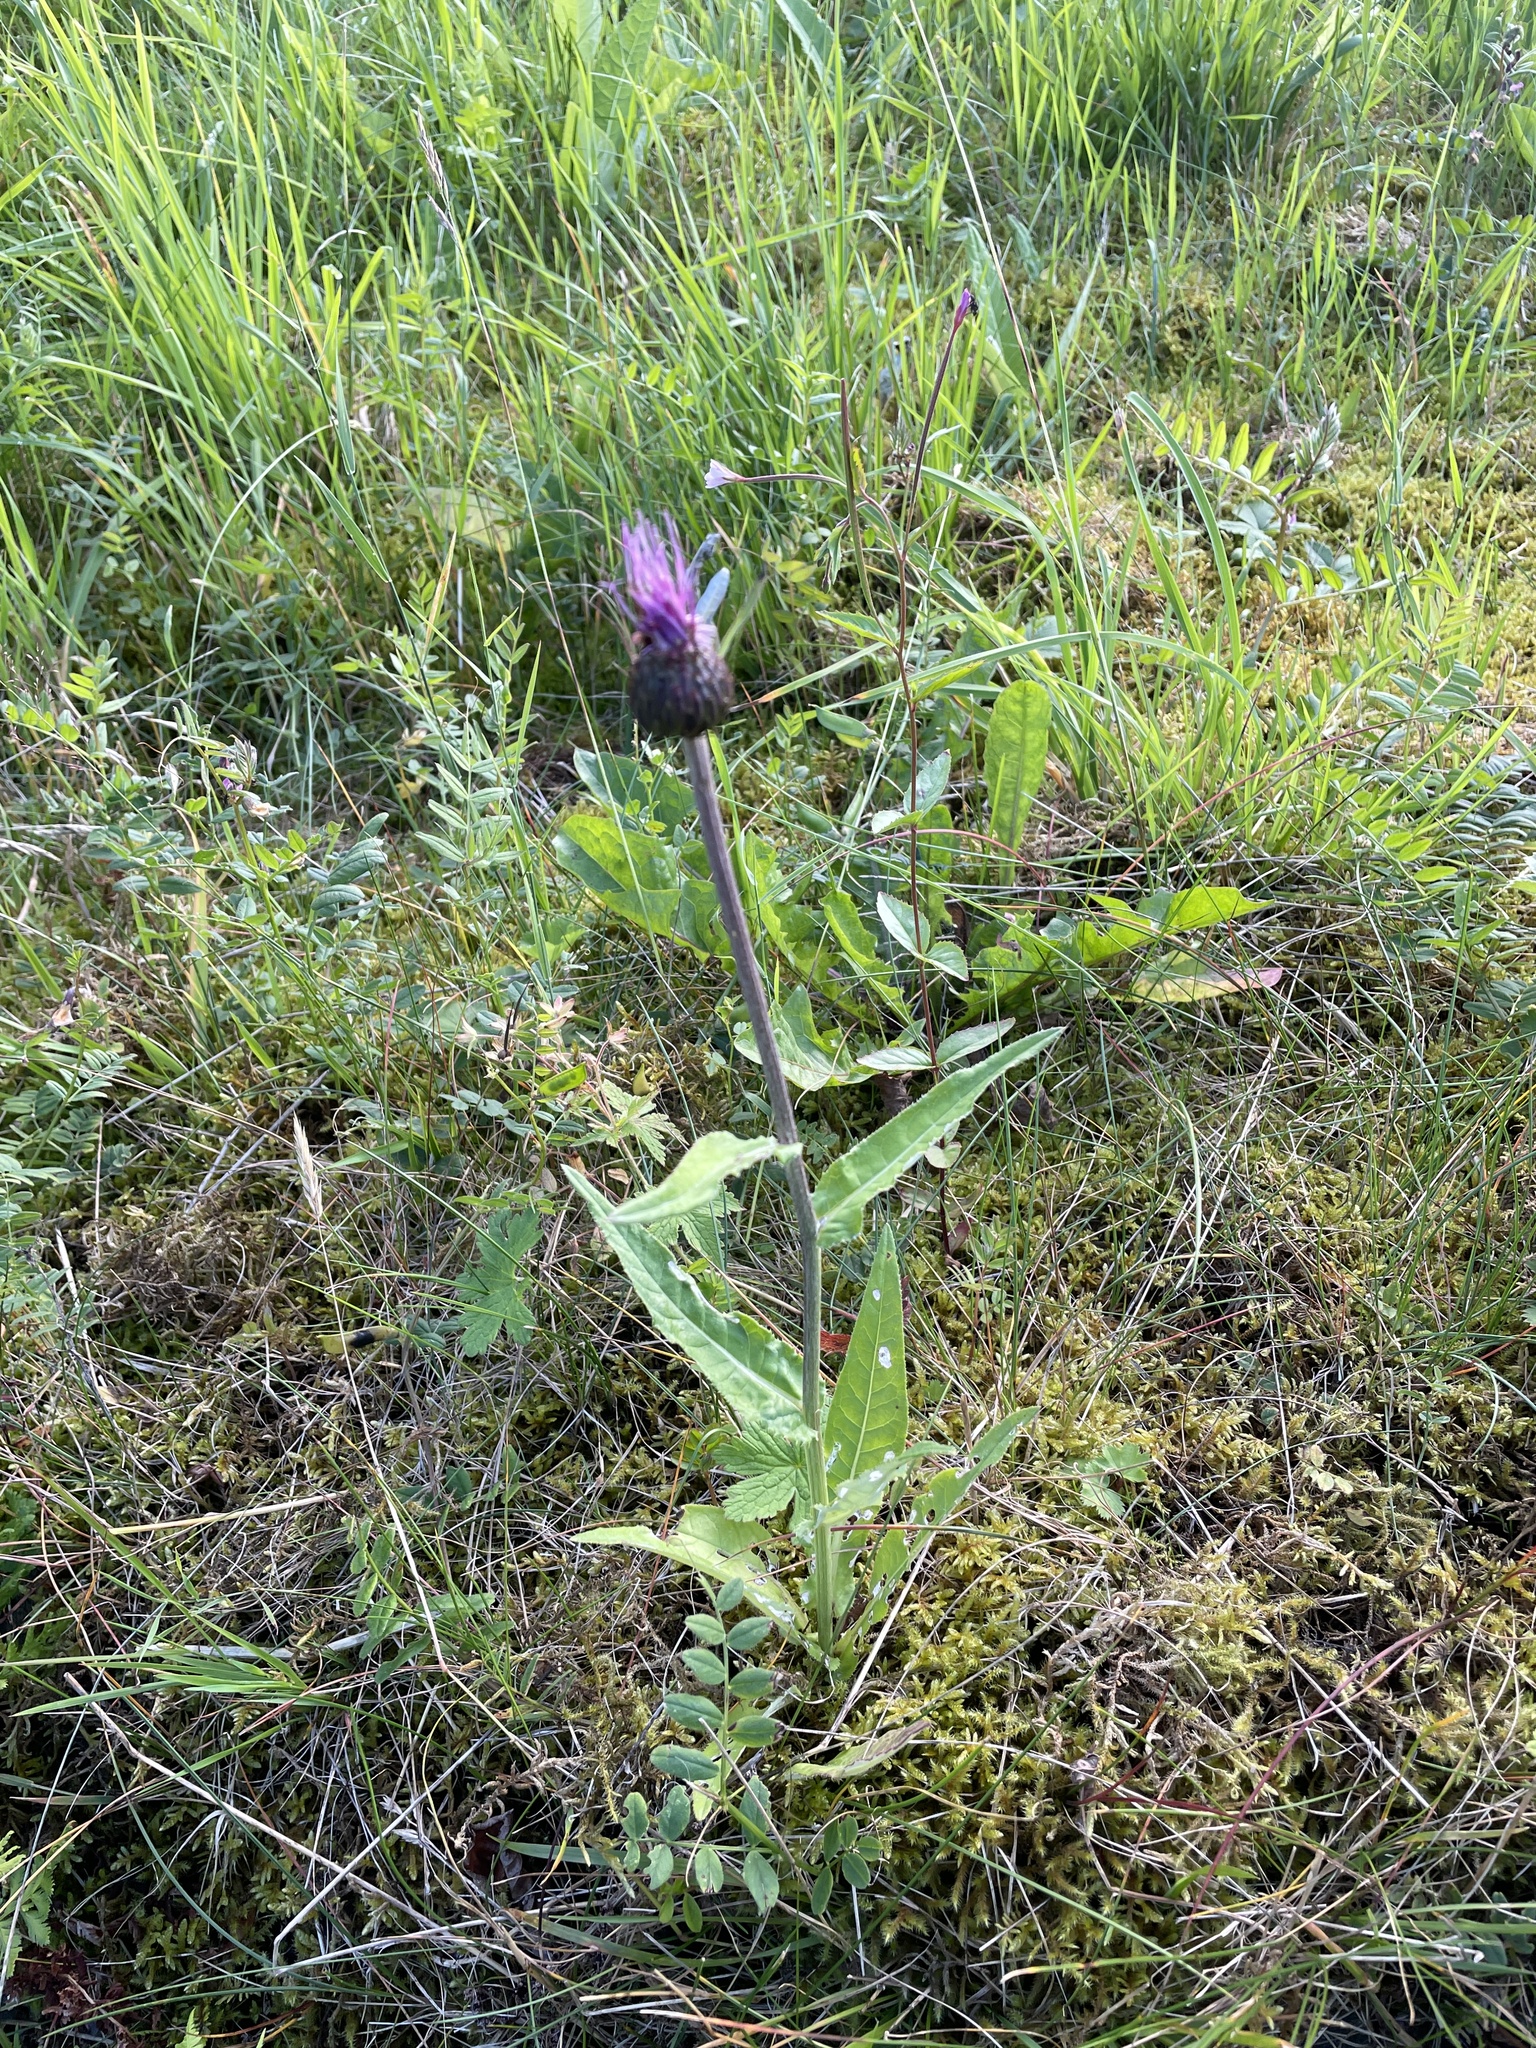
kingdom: Plantae
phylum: Tracheophyta
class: Magnoliopsida
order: Asterales
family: Asteraceae
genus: Cirsium
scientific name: Cirsium heterophyllum
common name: Melancholy thistle
